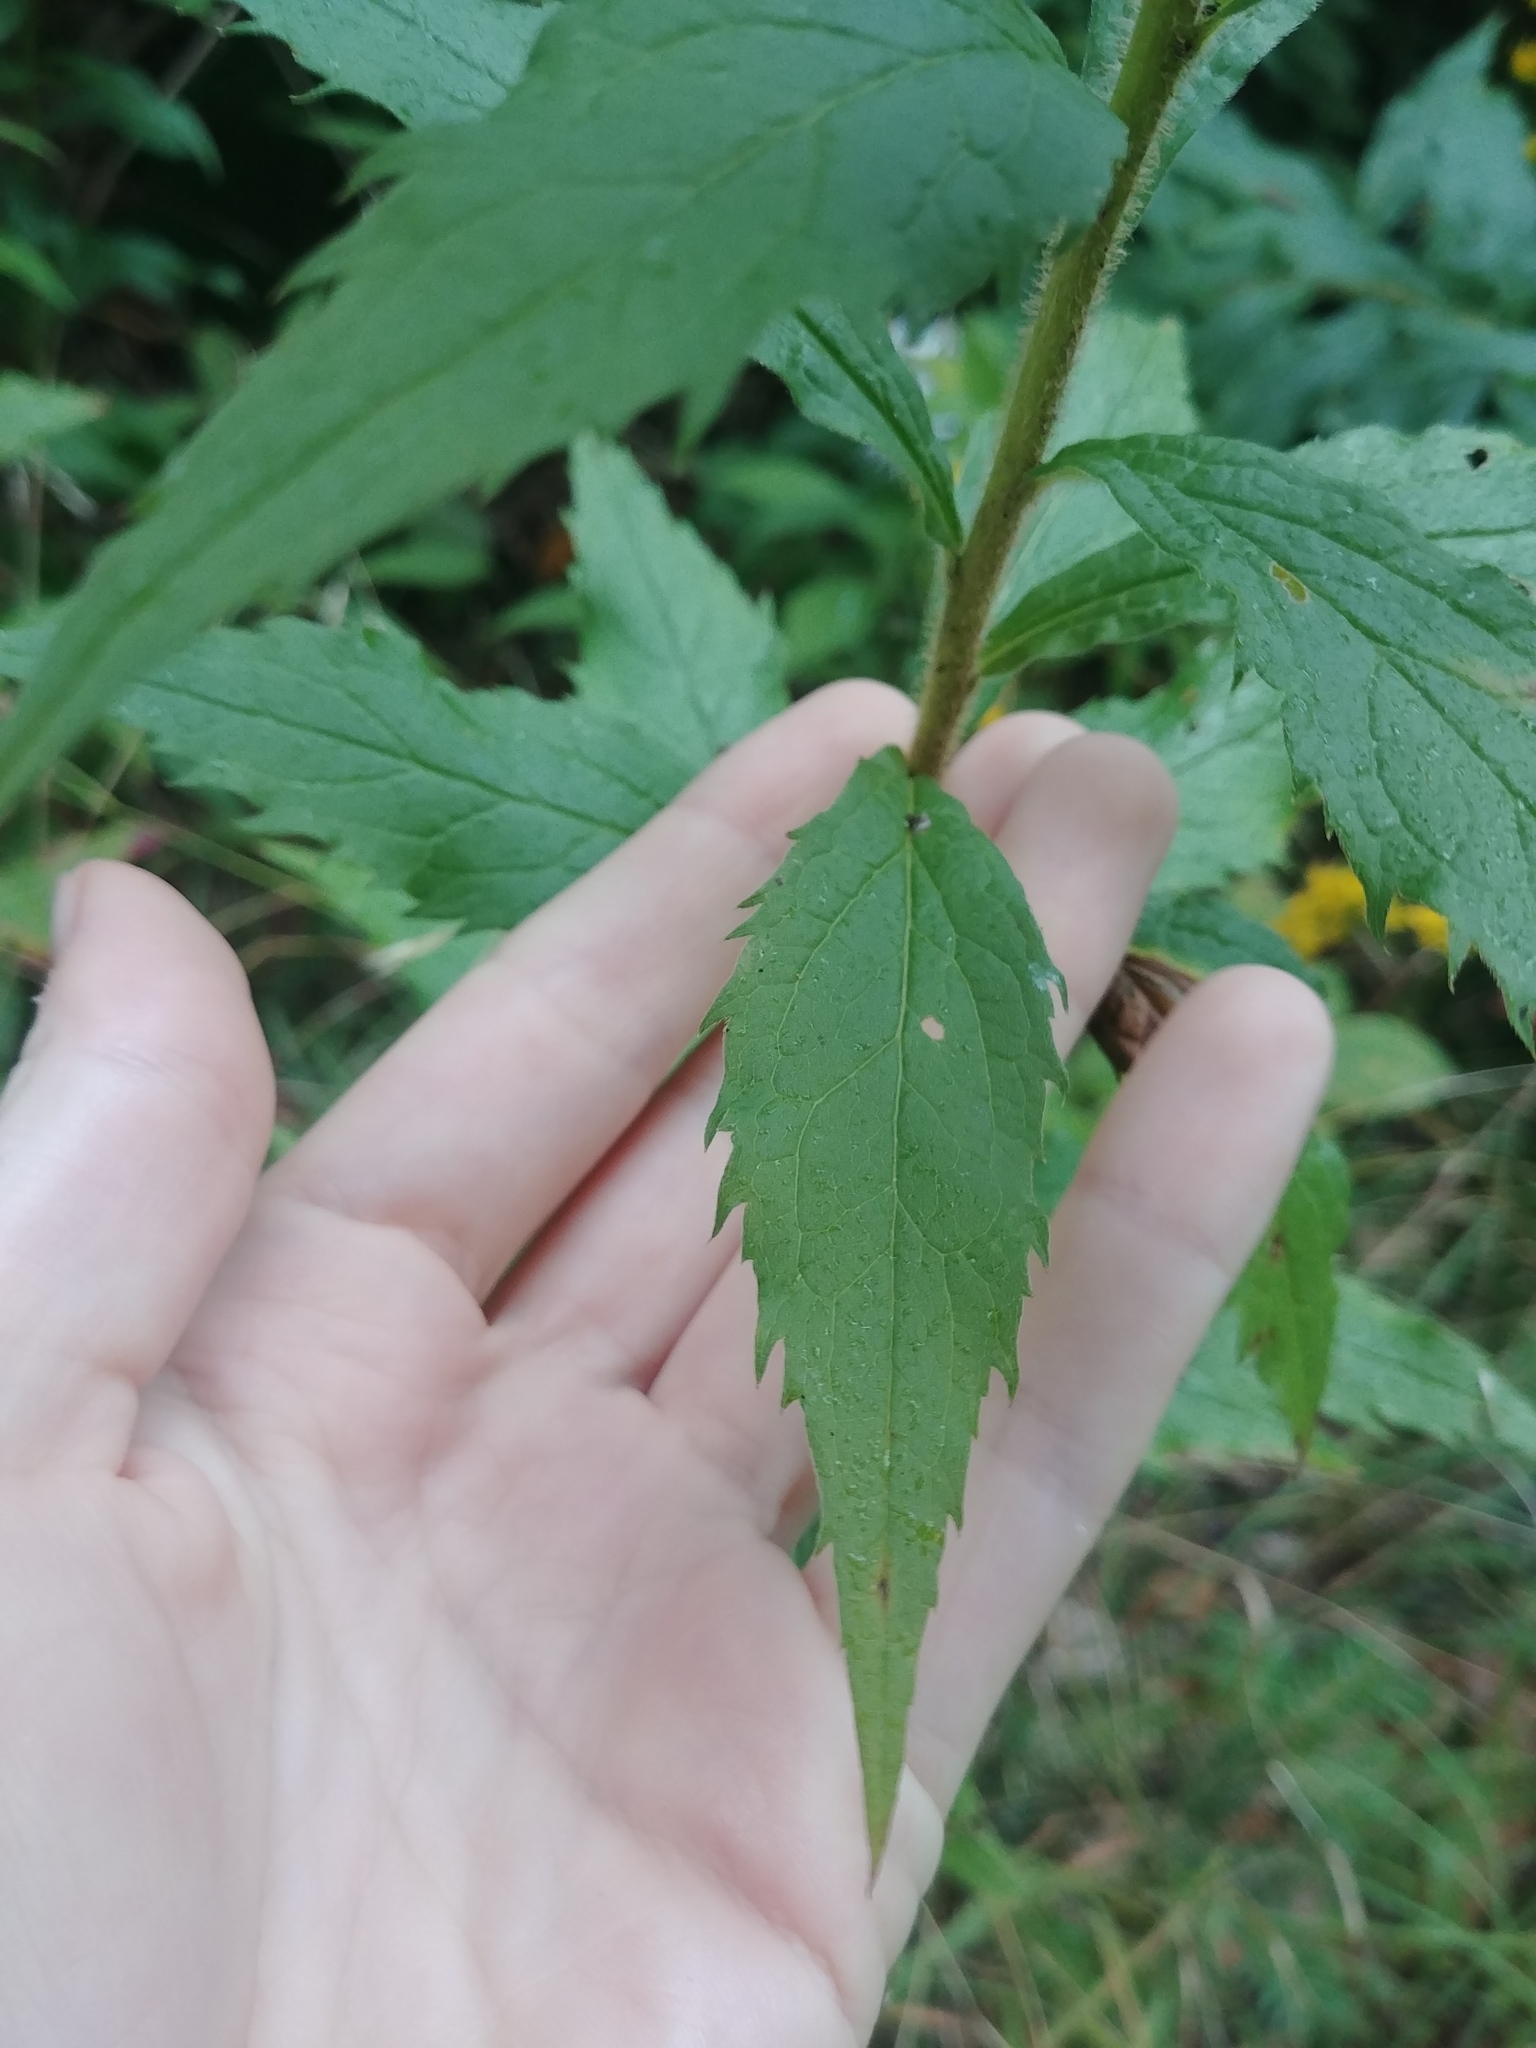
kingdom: Plantae
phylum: Tracheophyta
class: Magnoliopsida
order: Asterales
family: Asteraceae
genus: Solidago
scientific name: Solidago rugosa
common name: Rough-stemmed goldenrod
